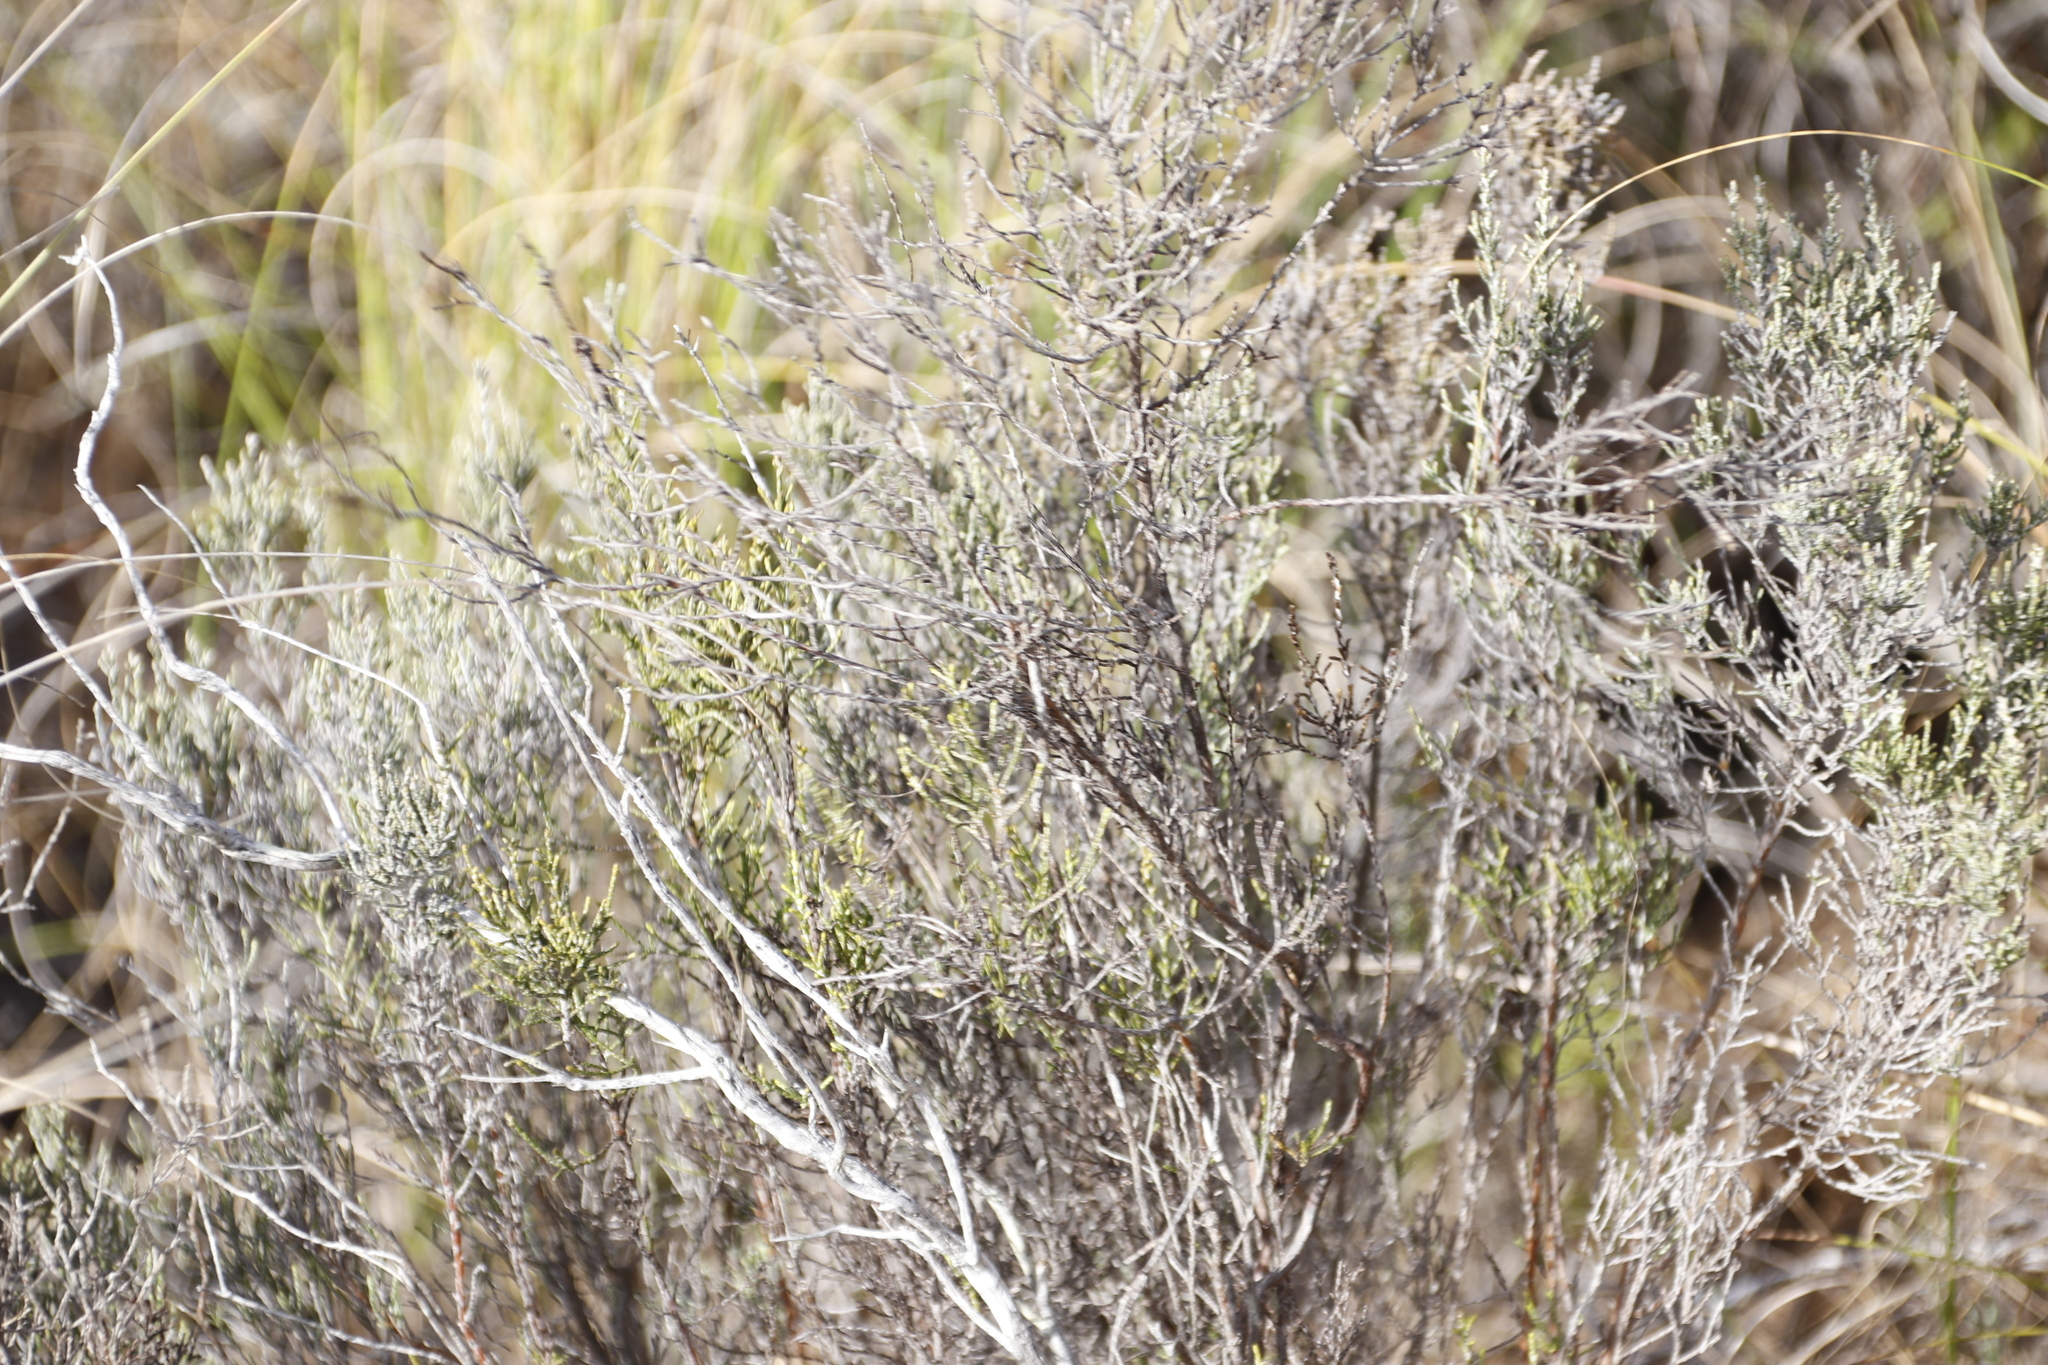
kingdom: Plantae
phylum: Tracheophyta
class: Magnoliopsida
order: Asterales
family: Asteraceae
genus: Dicerothamnus
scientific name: Dicerothamnus rhinocerotis
